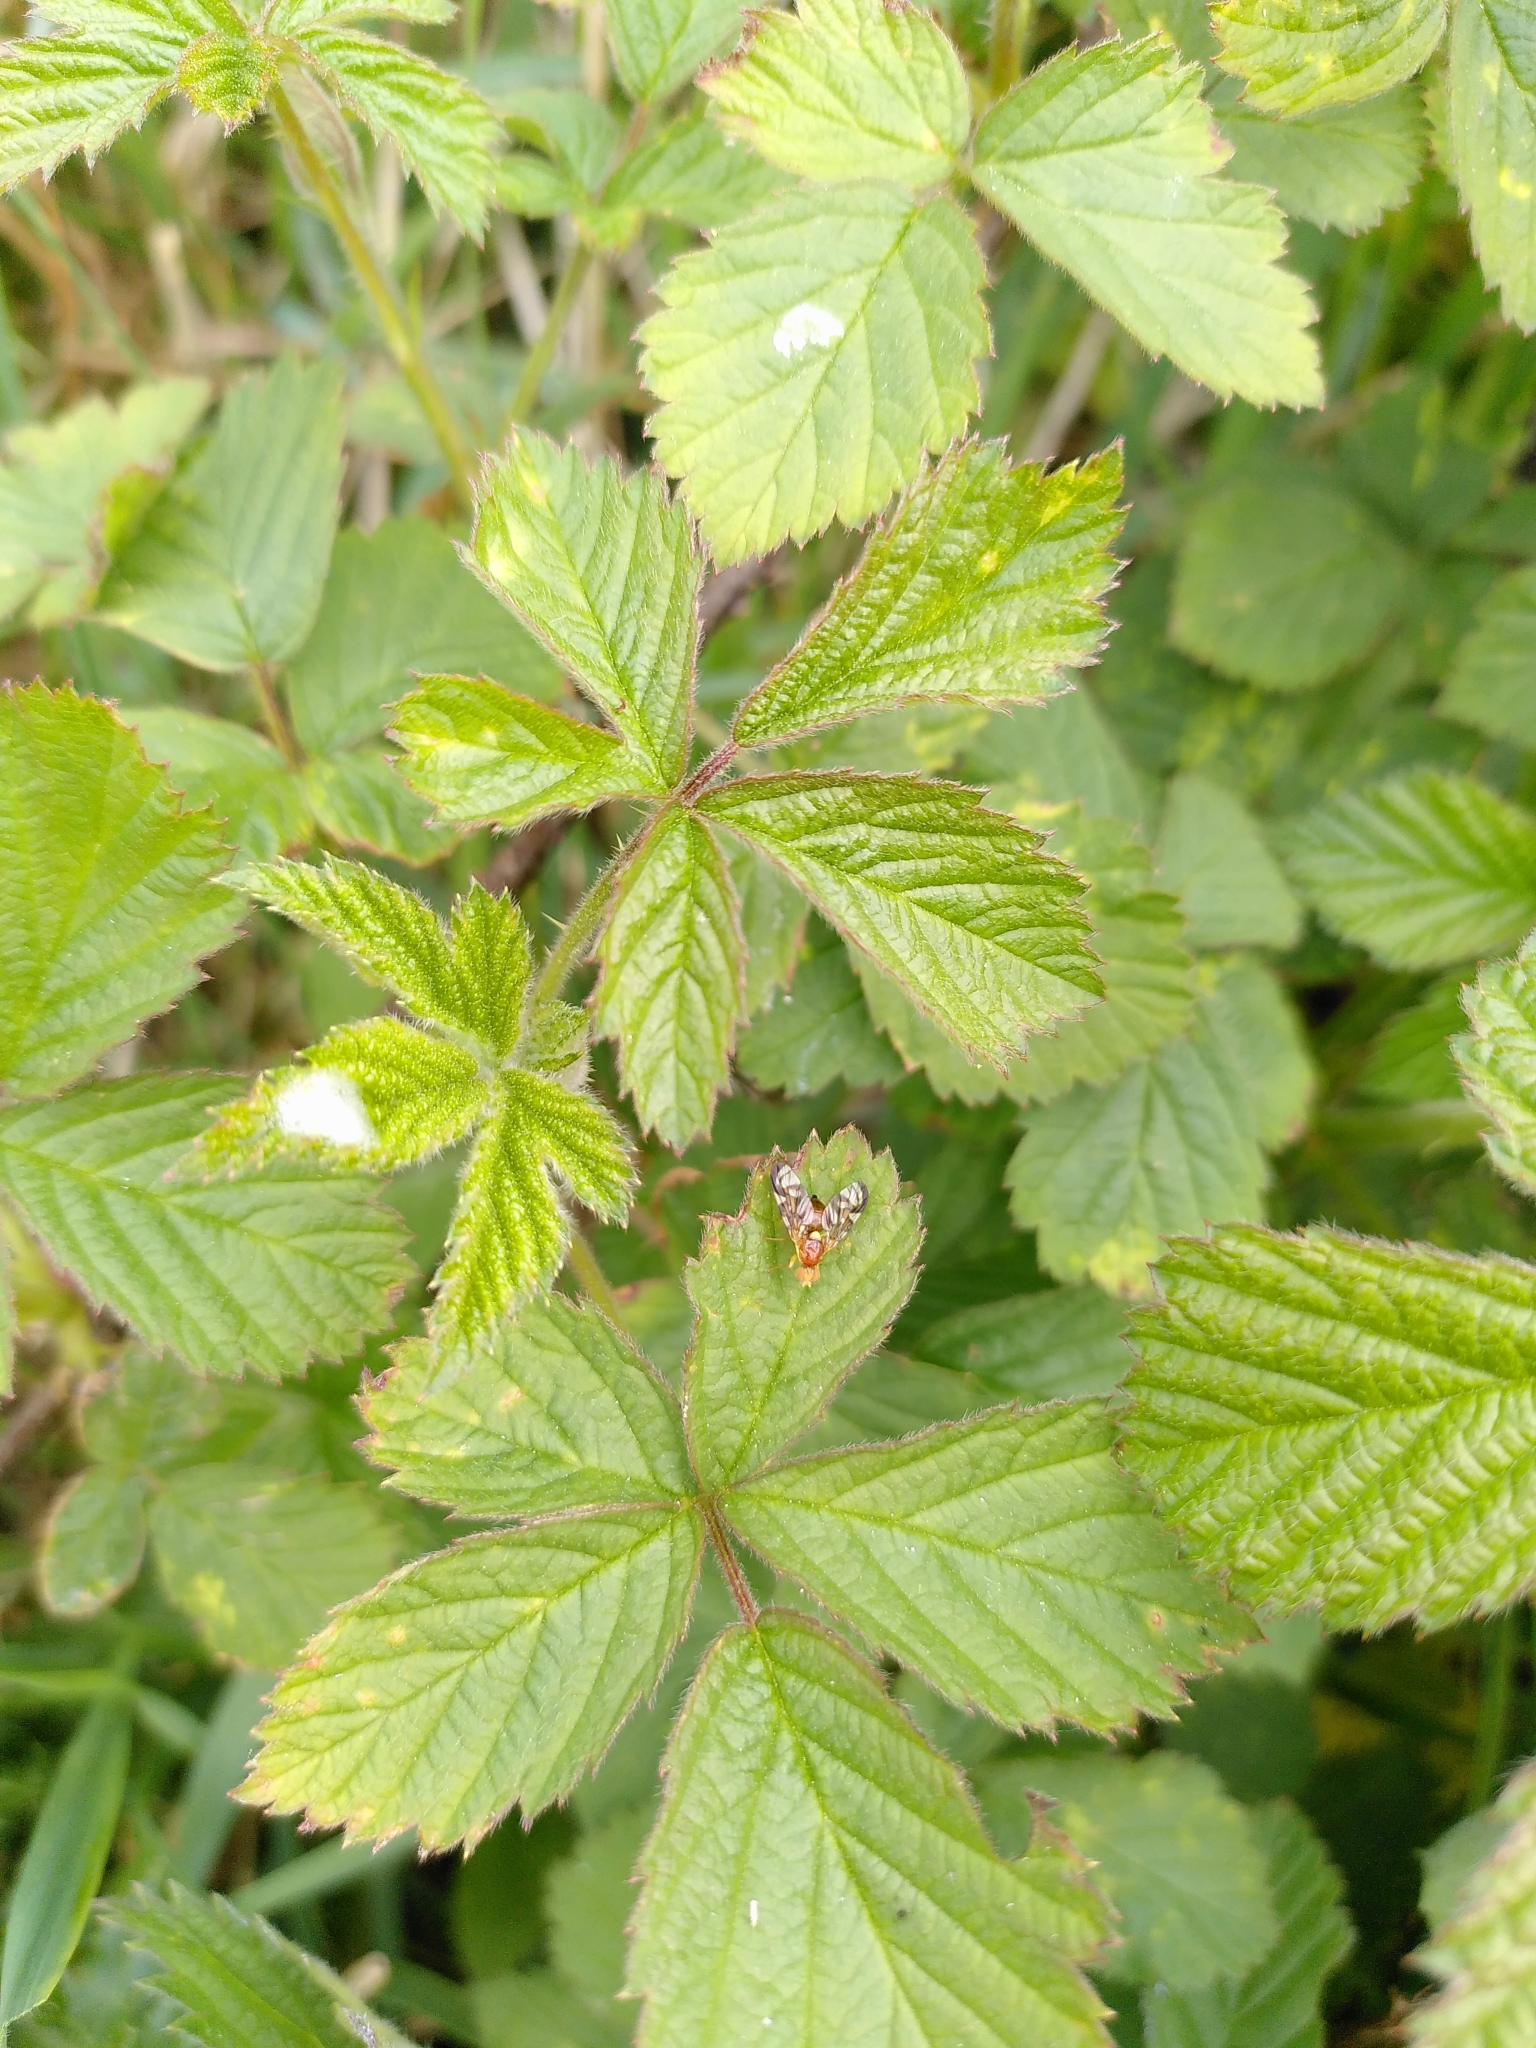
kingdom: Animalia
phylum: Arthropoda
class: Insecta
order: Diptera
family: Tephritidae
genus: Euleia
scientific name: Euleia heraclei
